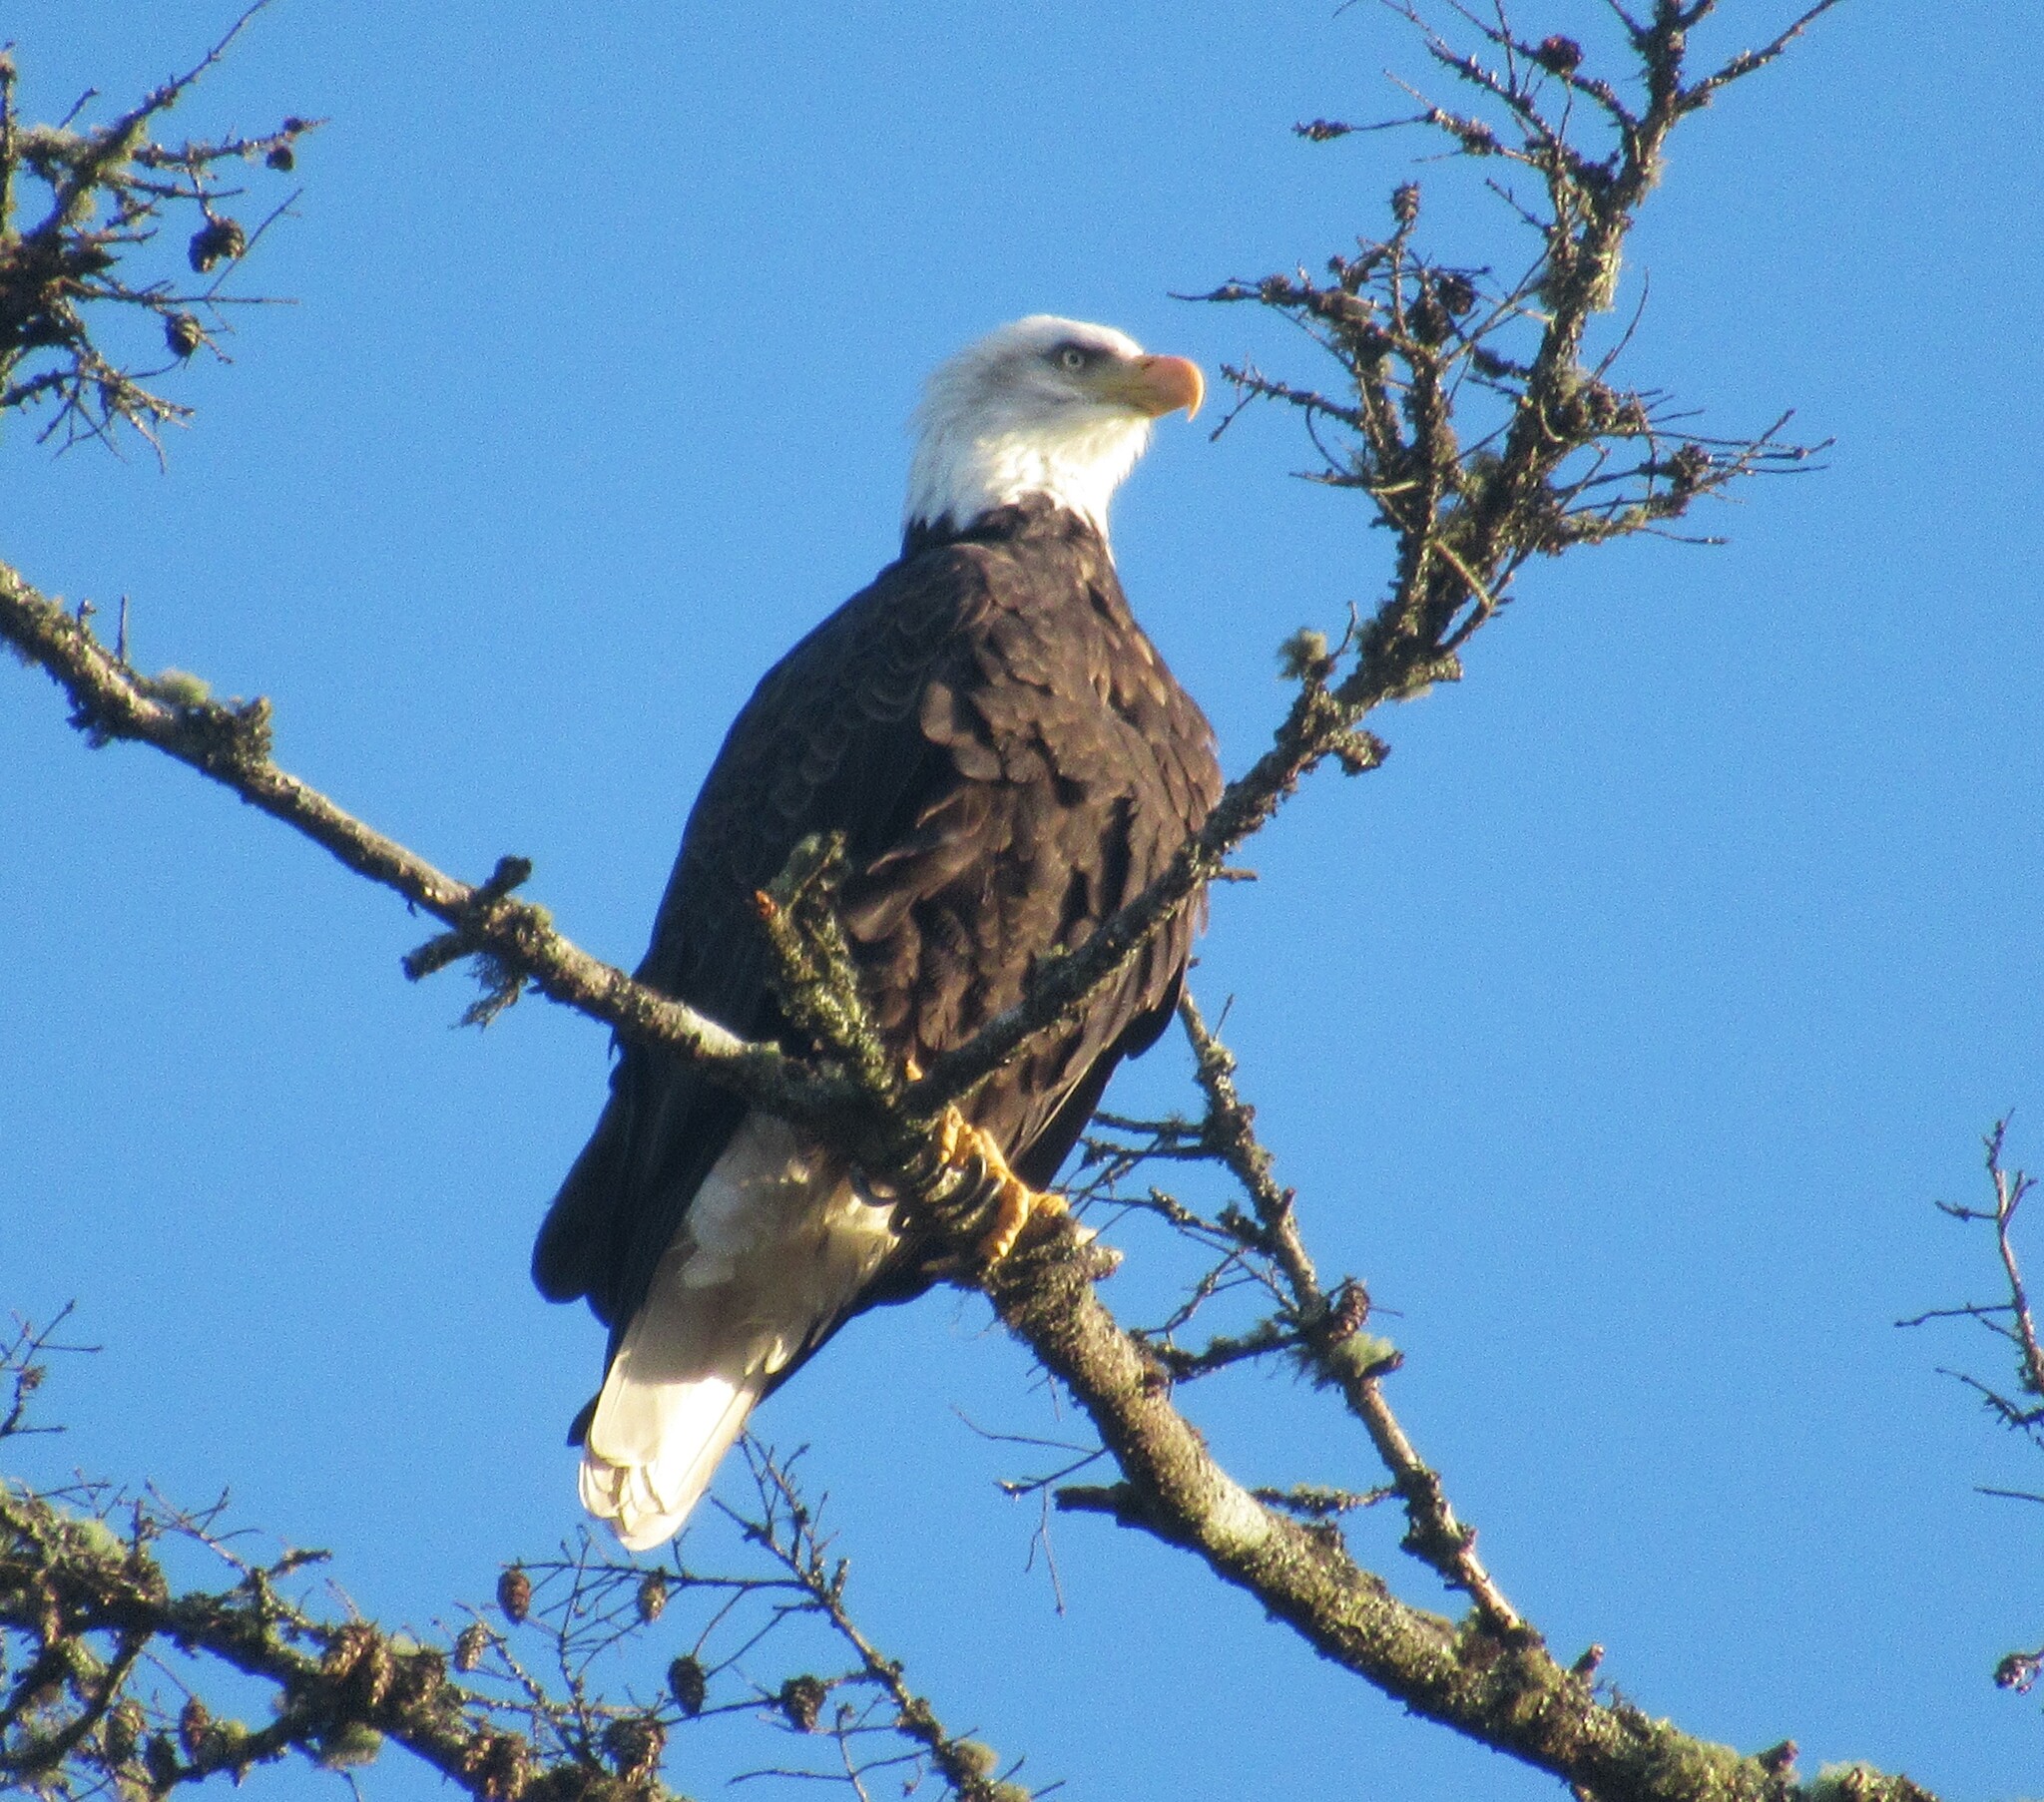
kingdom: Animalia
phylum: Chordata
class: Aves
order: Accipitriformes
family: Accipitridae
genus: Haliaeetus
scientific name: Haliaeetus leucocephalus
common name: Bald eagle
